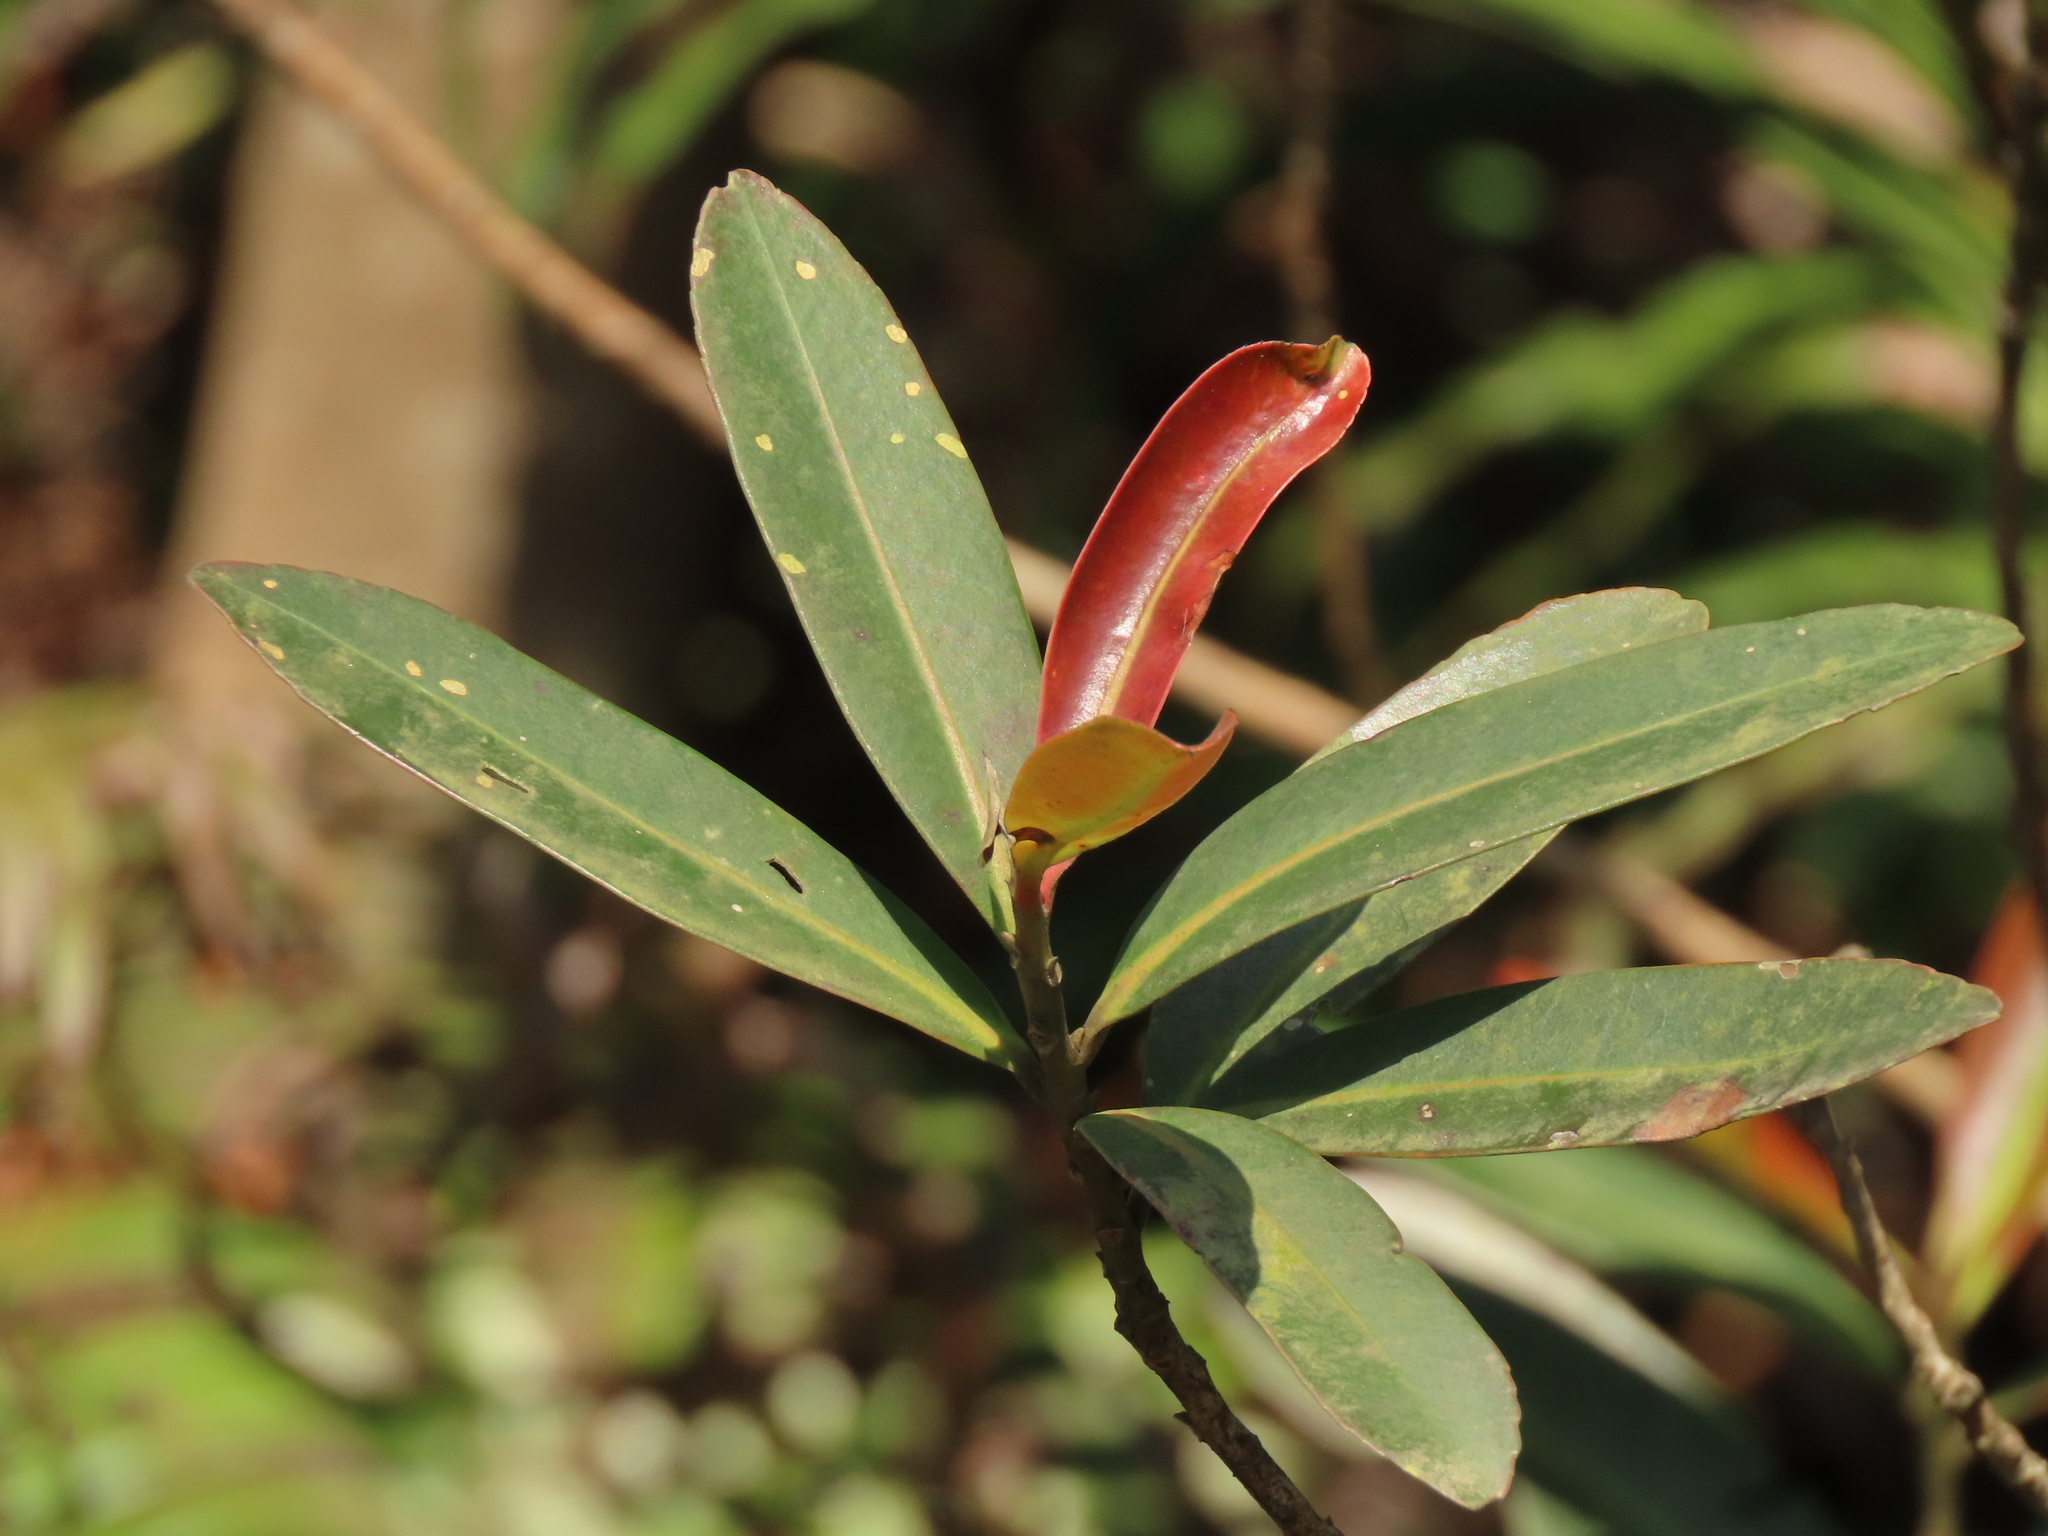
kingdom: Plantae
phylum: Tracheophyta
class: Magnoliopsida
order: Ericales
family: Theaceae
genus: Polyspora
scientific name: Polyspora axillaris
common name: Fried egg tree
